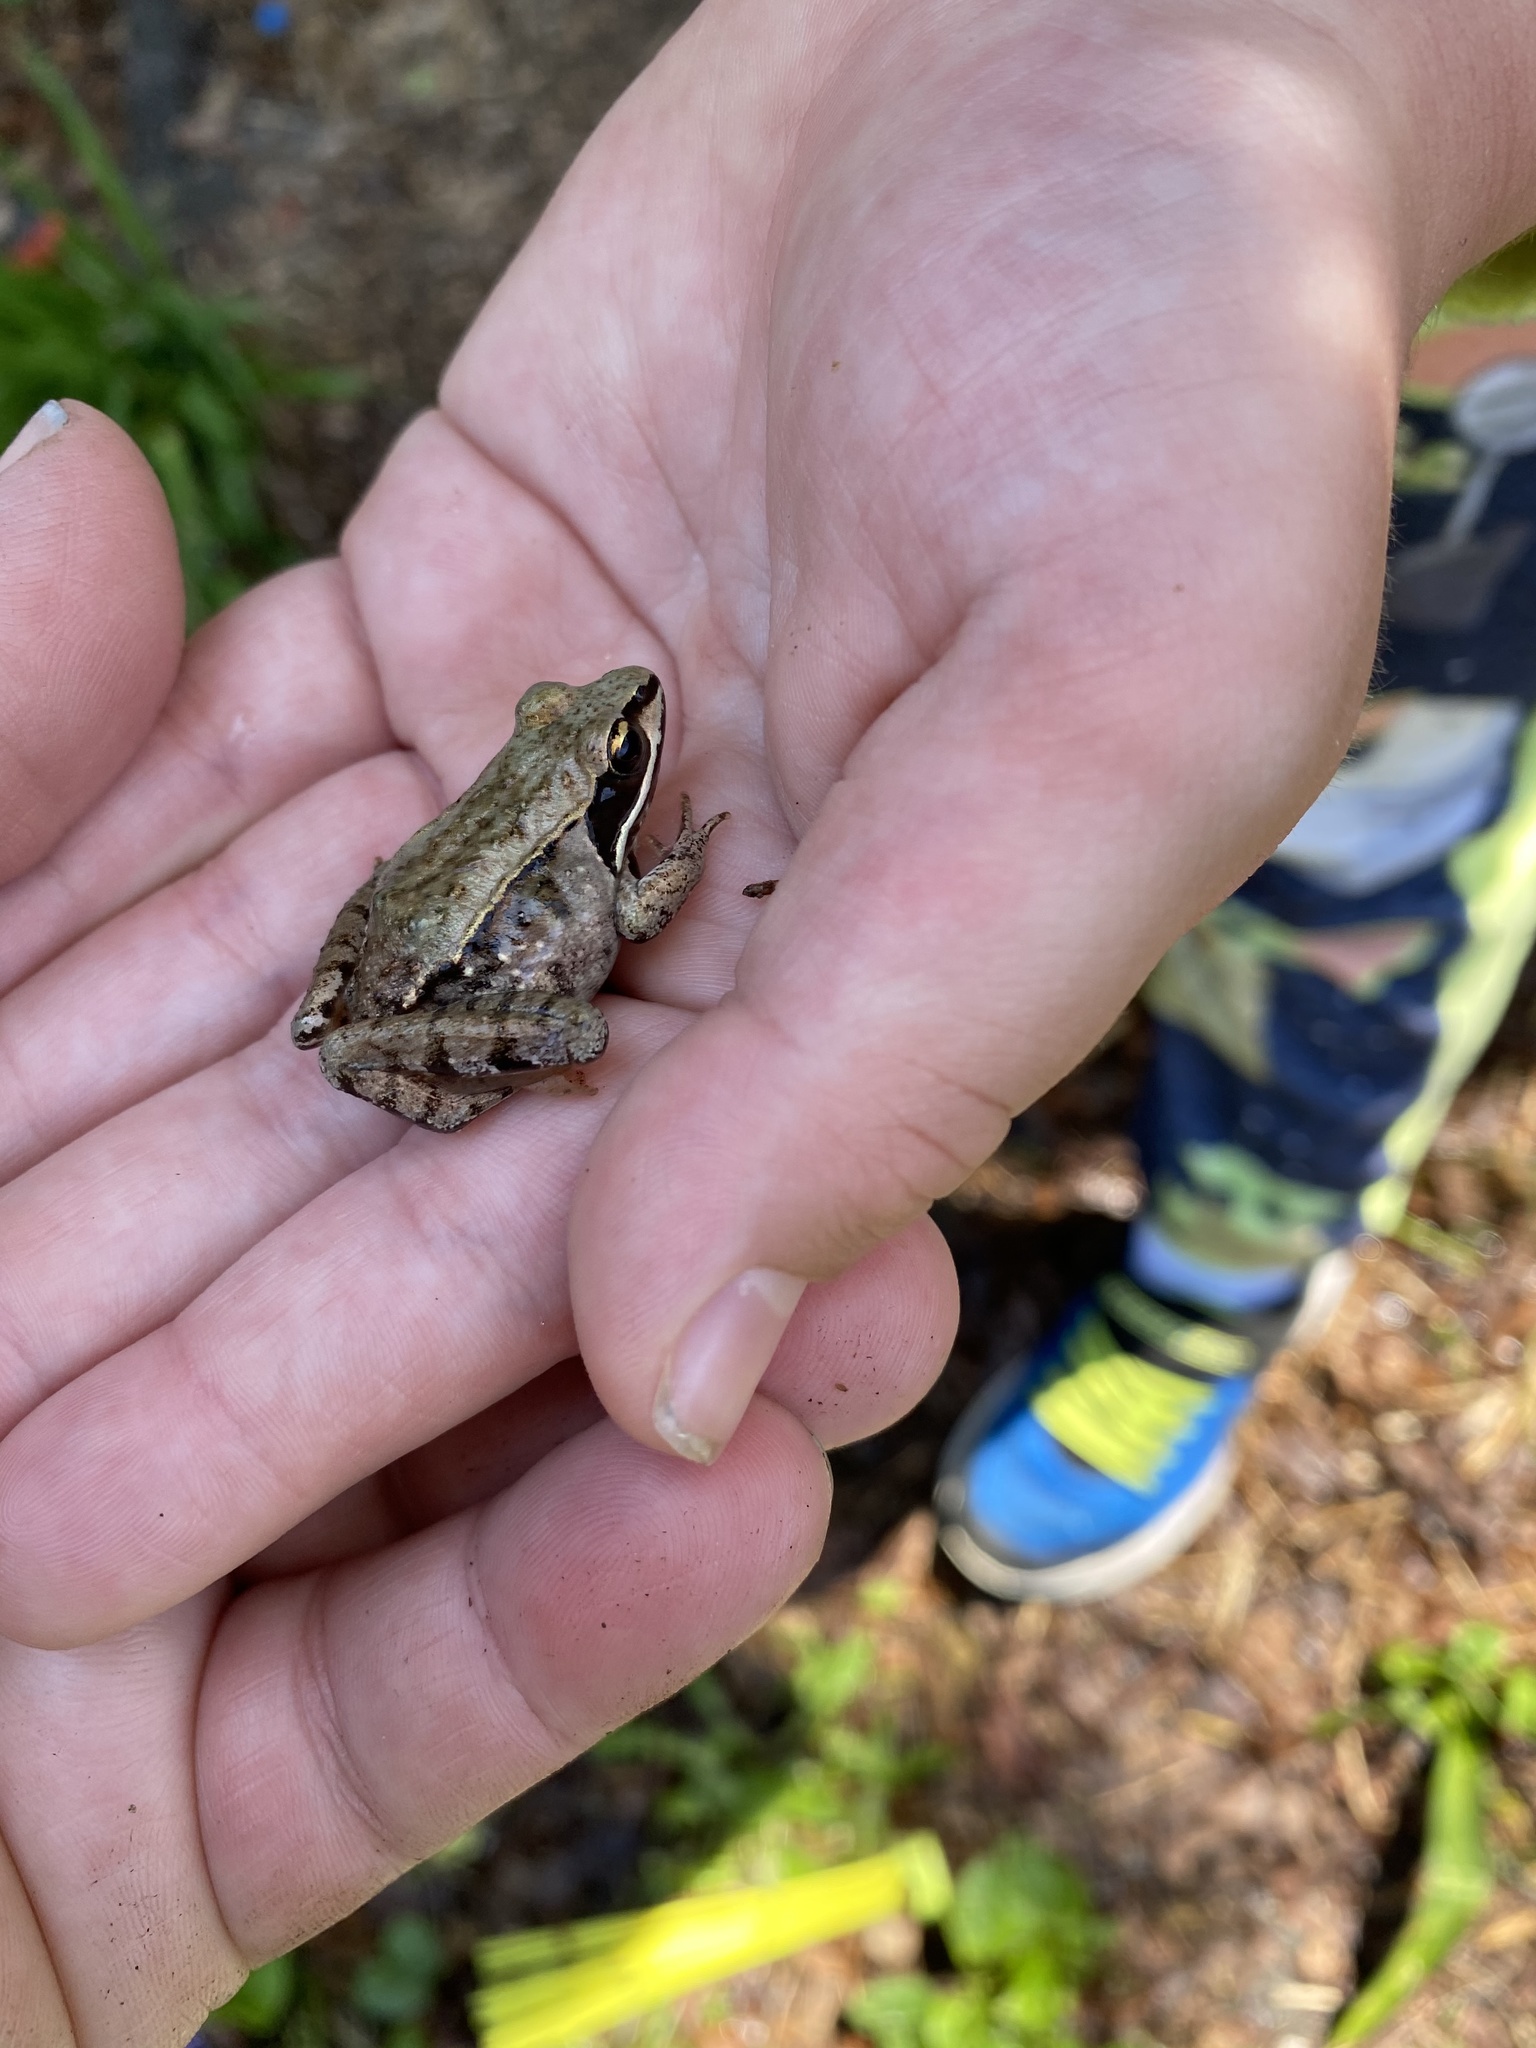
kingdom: Animalia
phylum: Chordata
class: Amphibia
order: Anura
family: Ranidae
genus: Lithobates
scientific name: Lithobates sylvaticus
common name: Wood frog
